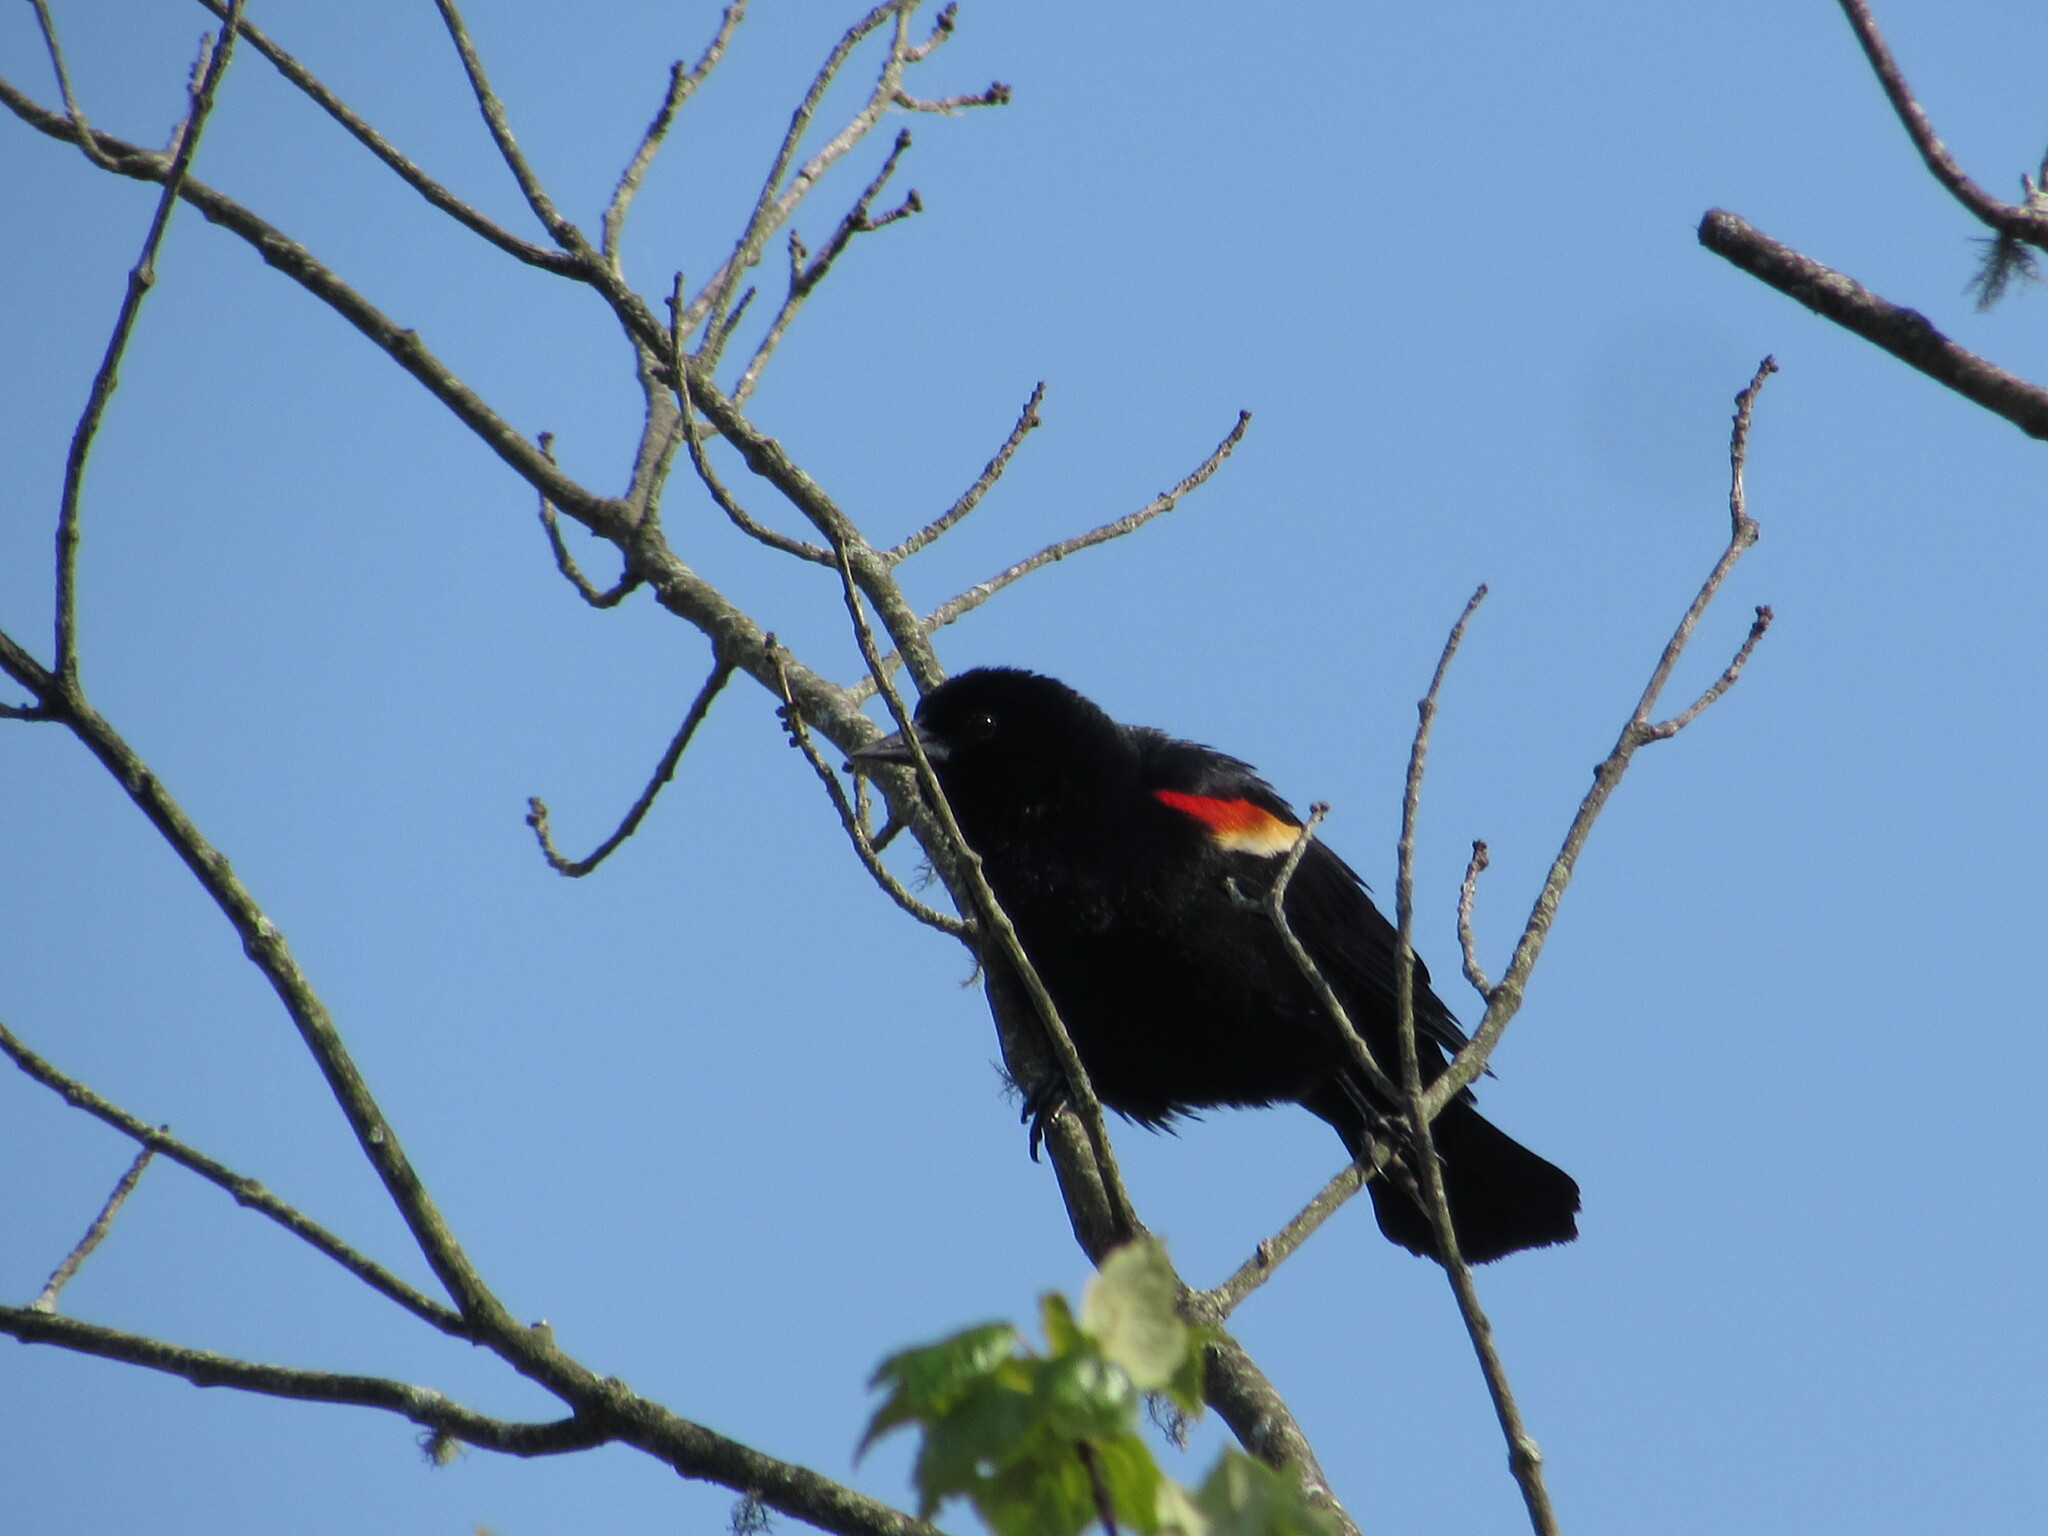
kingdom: Animalia
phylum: Chordata
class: Aves
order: Passeriformes
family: Icteridae
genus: Agelaius
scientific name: Agelaius phoeniceus
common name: Red-winged blackbird
